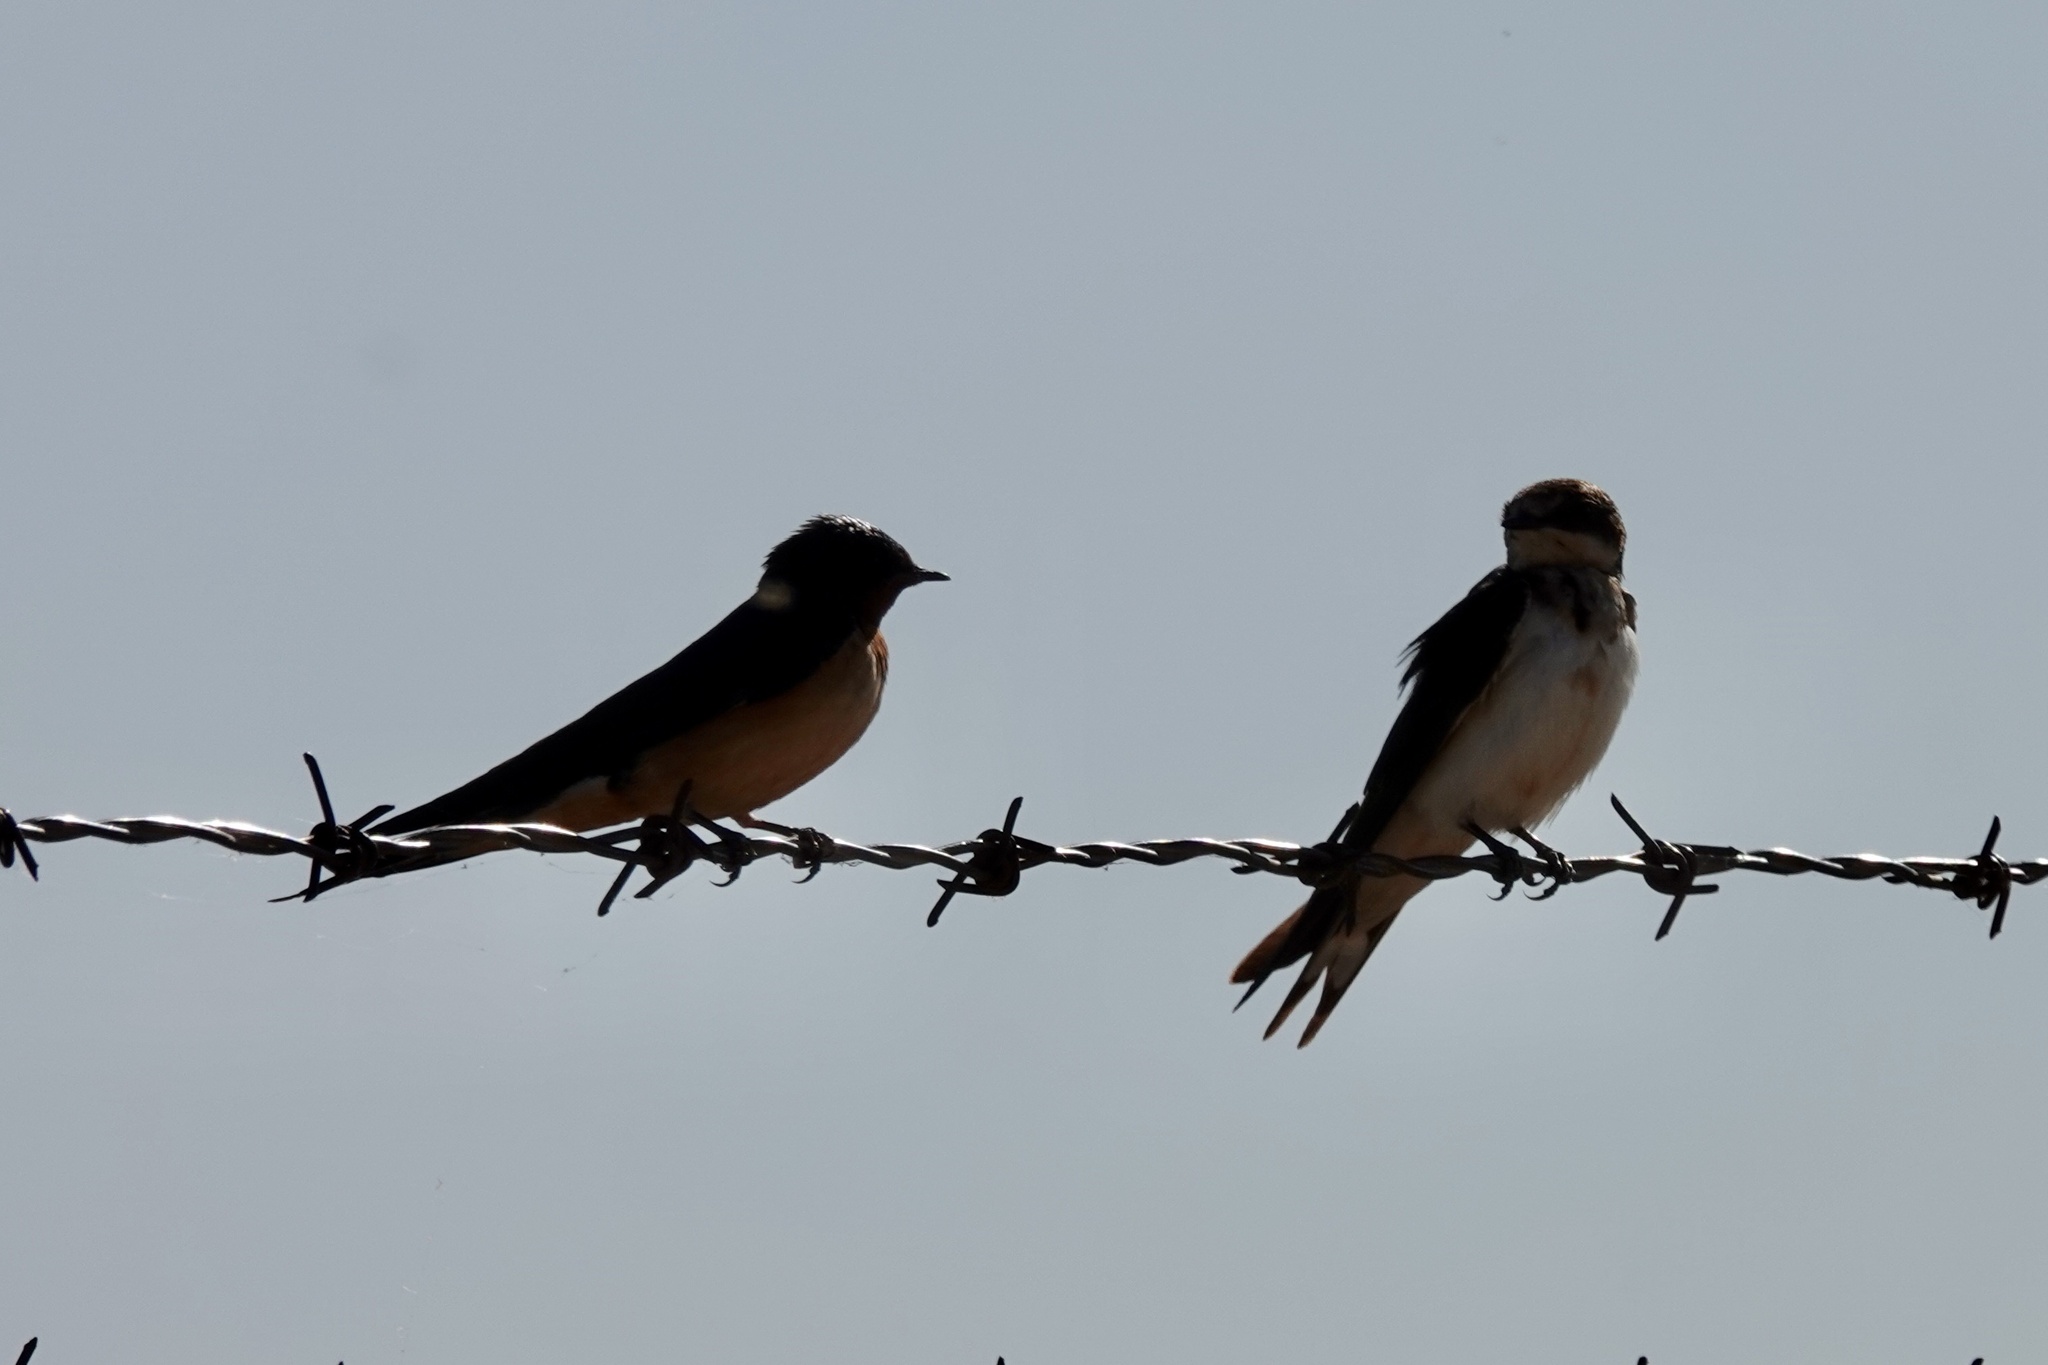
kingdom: Animalia
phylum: Chordata
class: Aves
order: Passeriformes
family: Hirundinidae
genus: Hirundo
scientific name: Hirundo rustica
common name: Barn swallow
